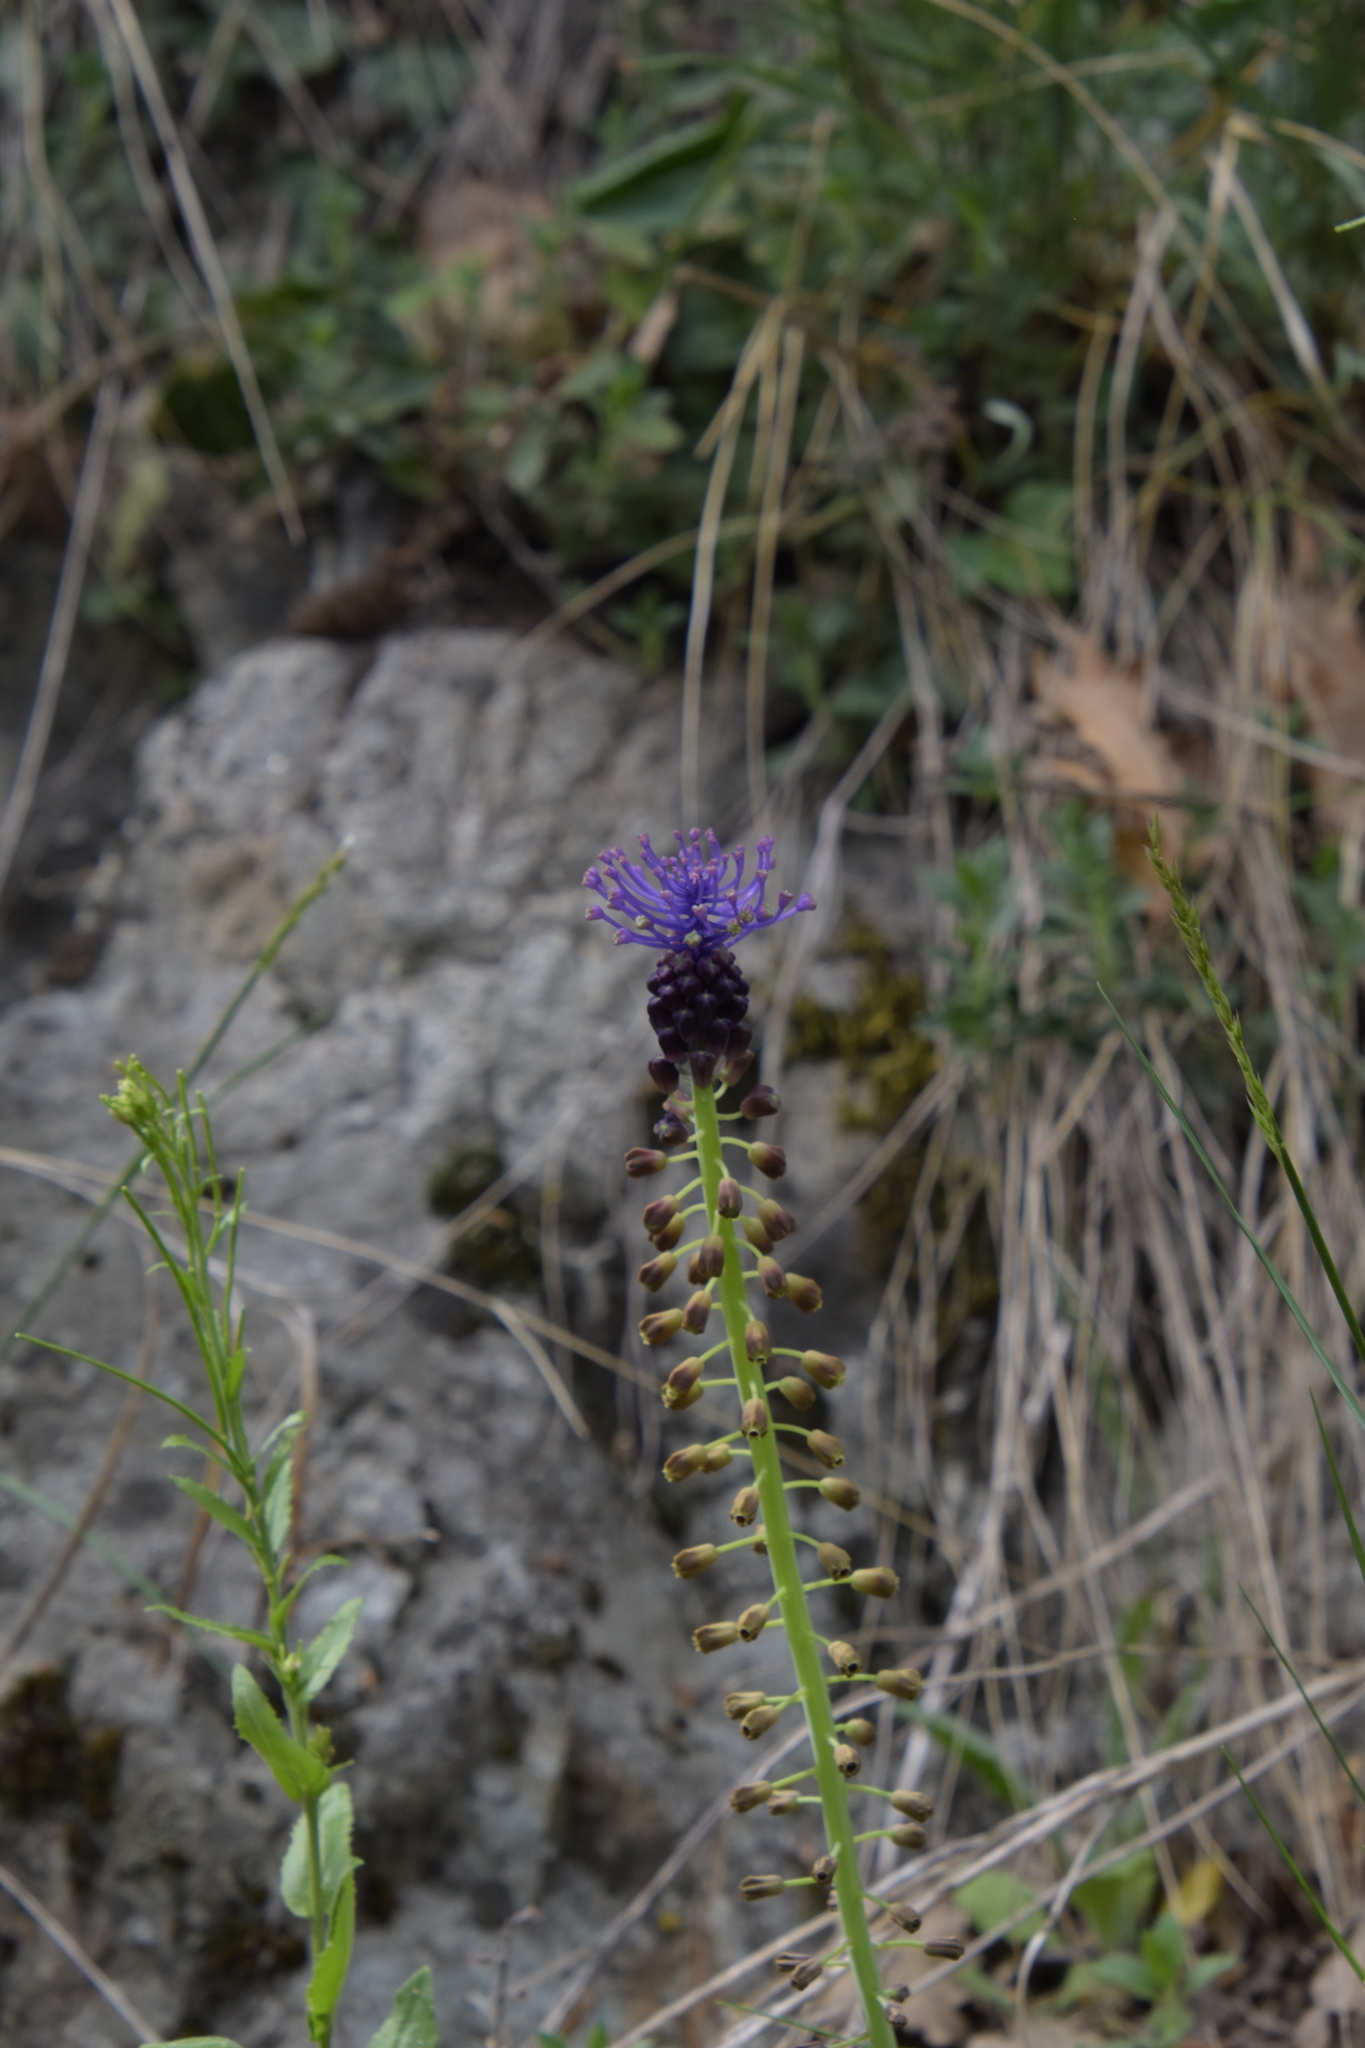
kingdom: Plantae
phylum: Tracheophyta
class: Liliopsida
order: Asparagales
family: Asparagaceae
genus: Muscari
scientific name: Muscari comosum
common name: Tassel hyacinth
